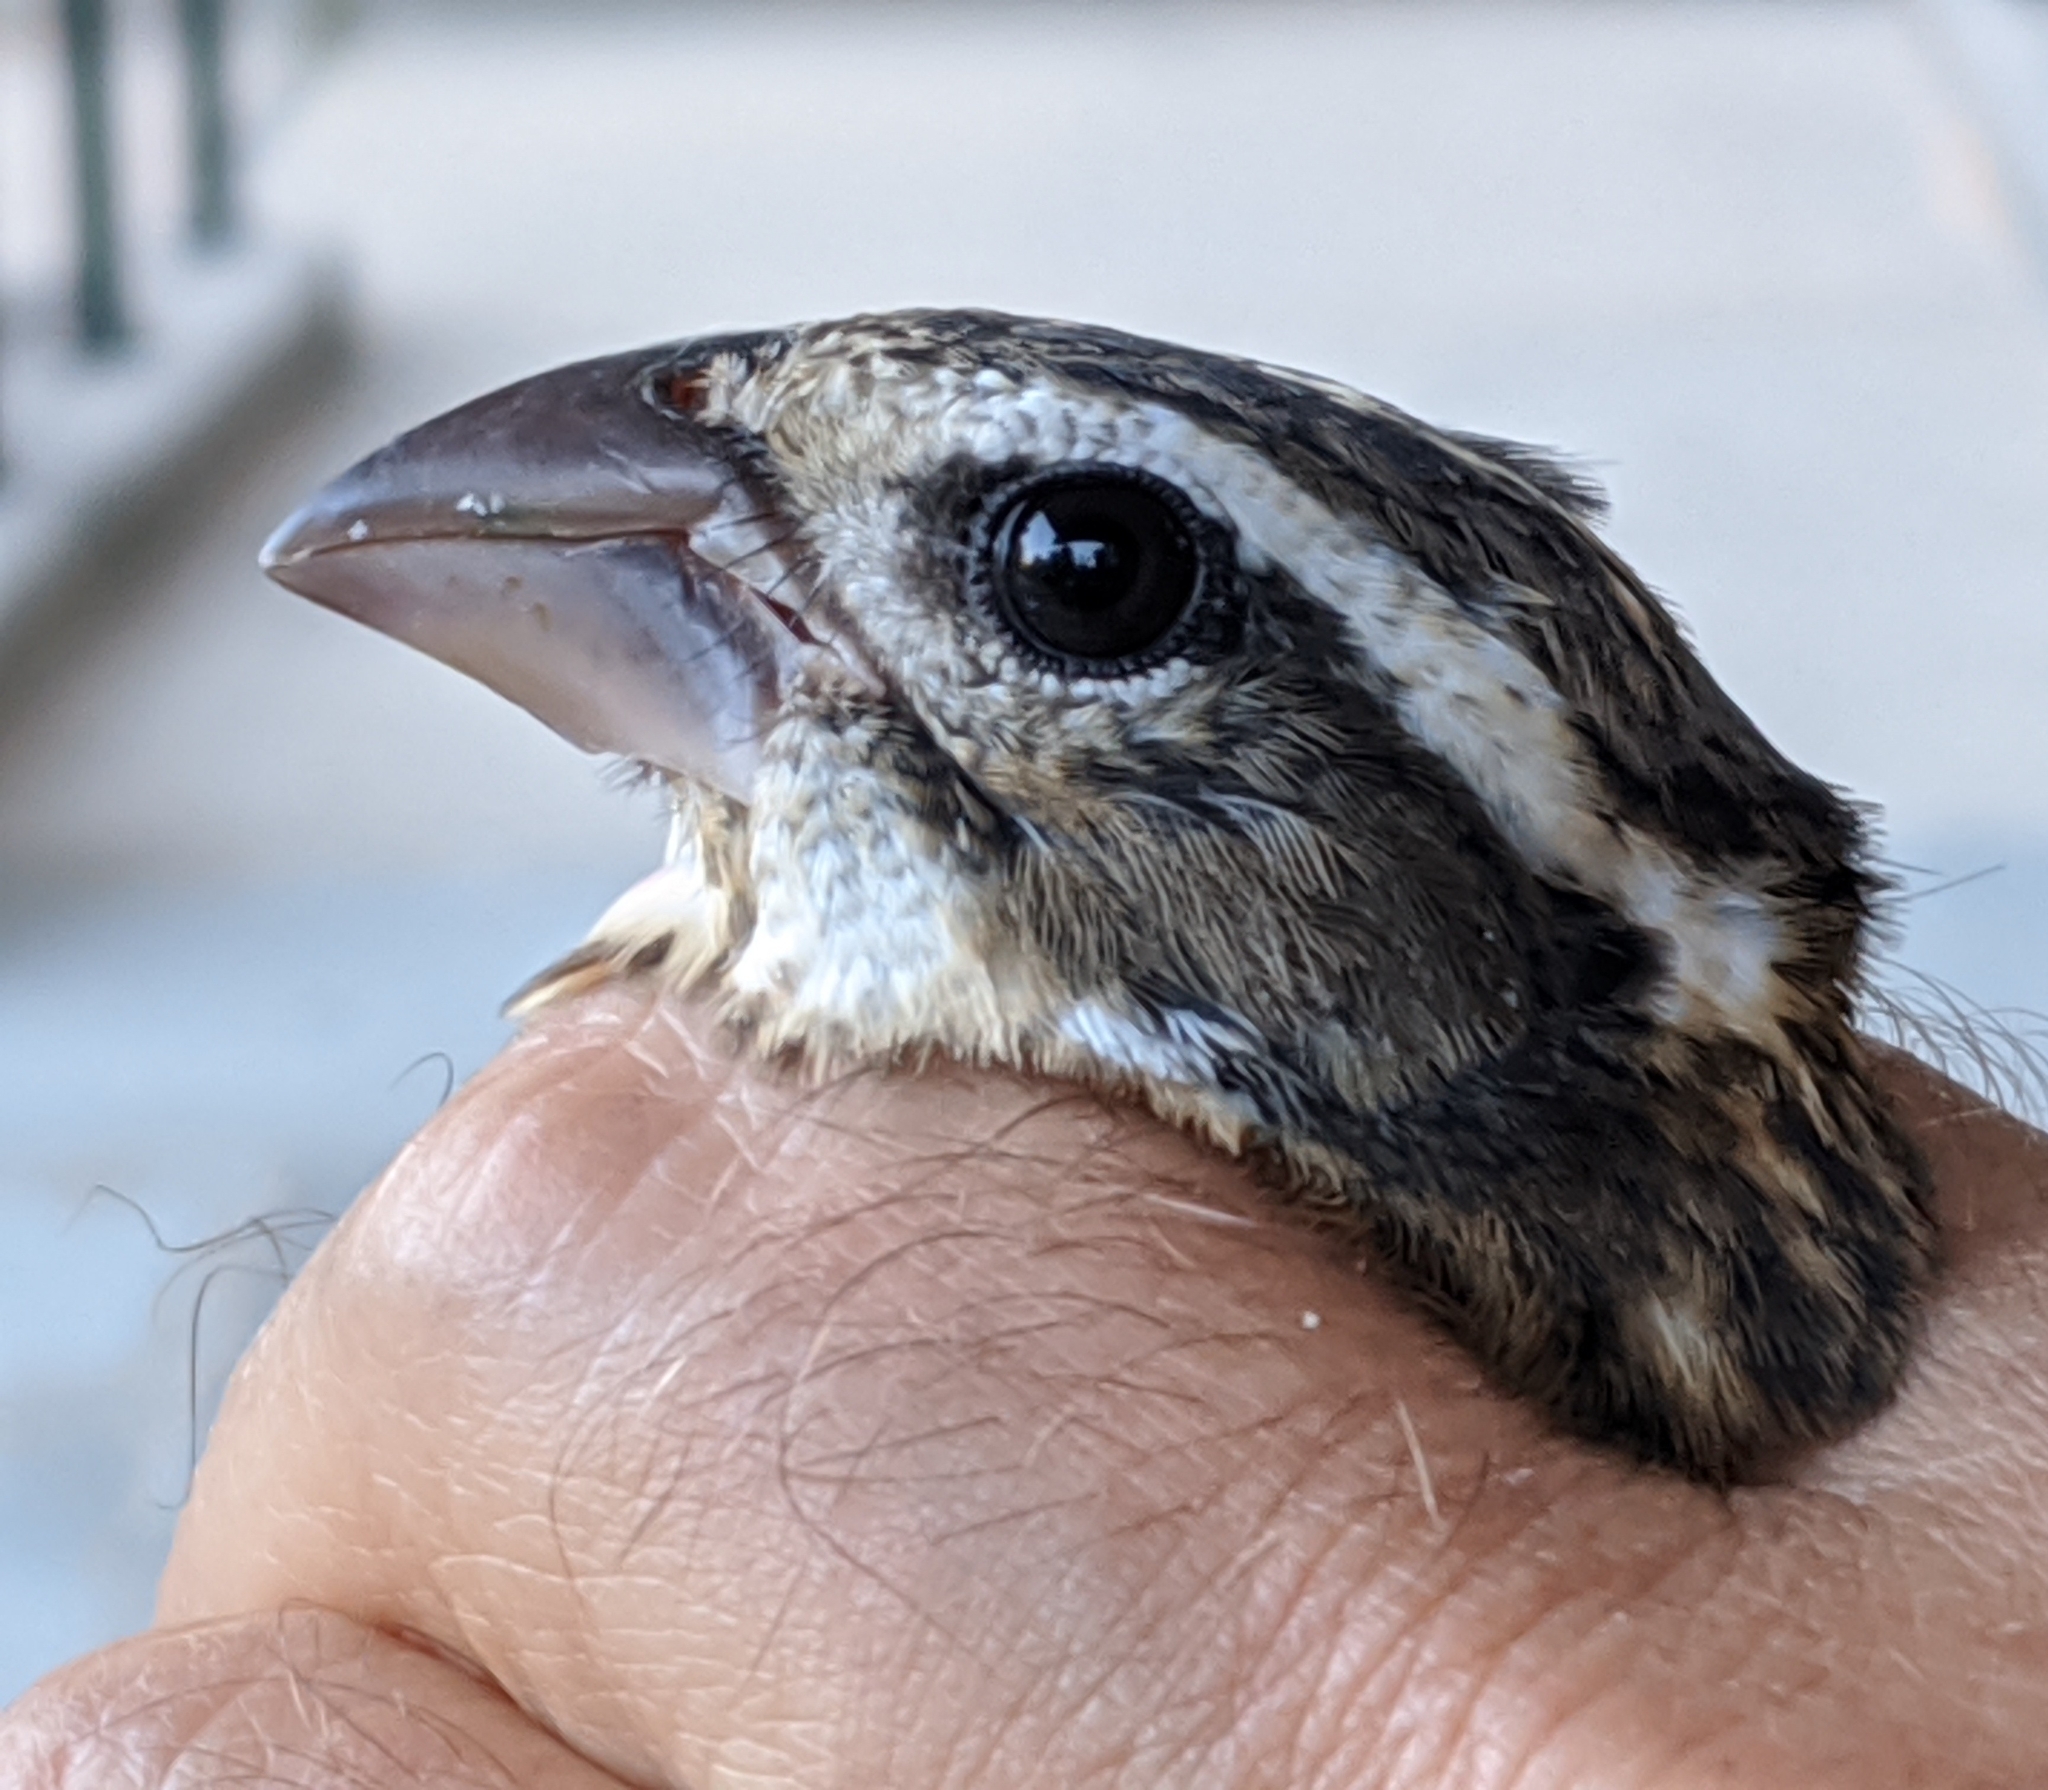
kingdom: Animalia
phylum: Chordata
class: Aves
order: Passeriformes
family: Cardinalidae
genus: Pheucticus
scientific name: Pheucticus ludovicianus
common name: Rose-breasted grosbeak
